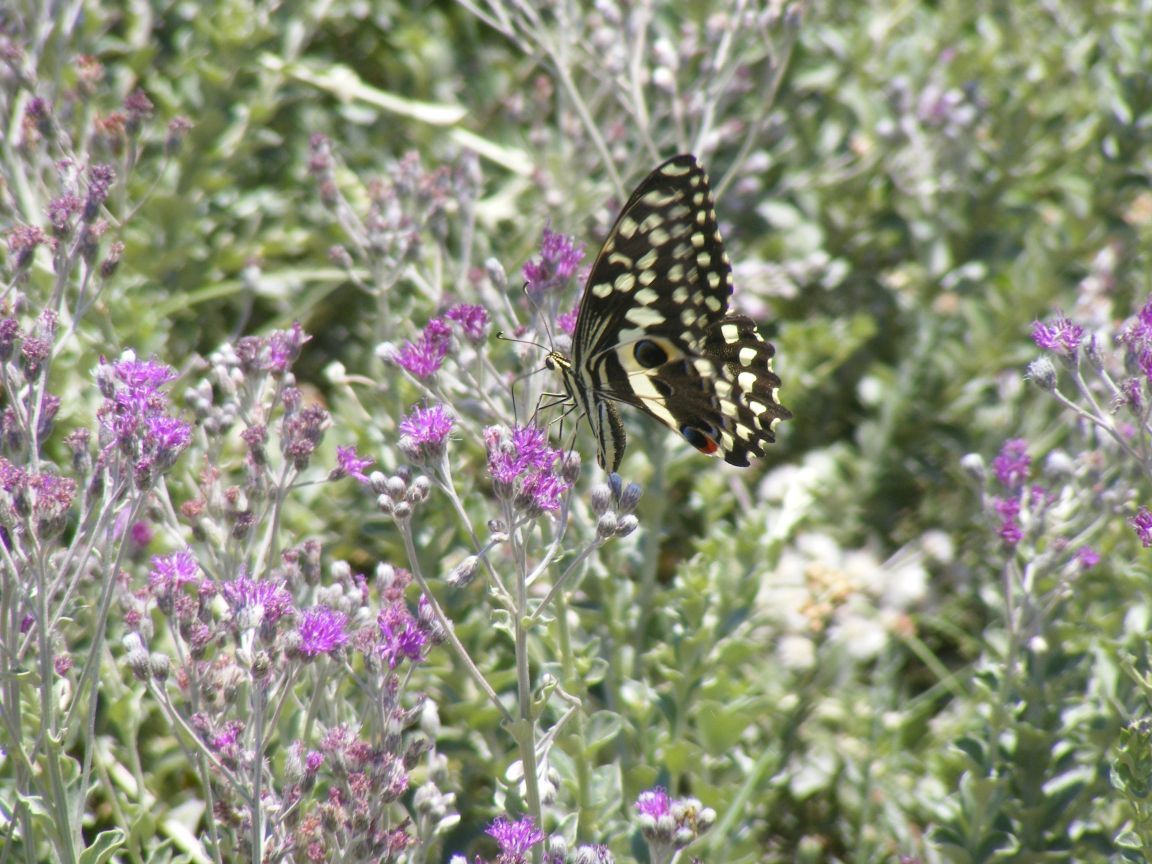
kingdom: Animalia
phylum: Arthropoda
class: Insecta
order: Lepidoptera
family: Papilionidae
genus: Papilio
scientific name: Papilio demodocus
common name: Christmas butterfly
